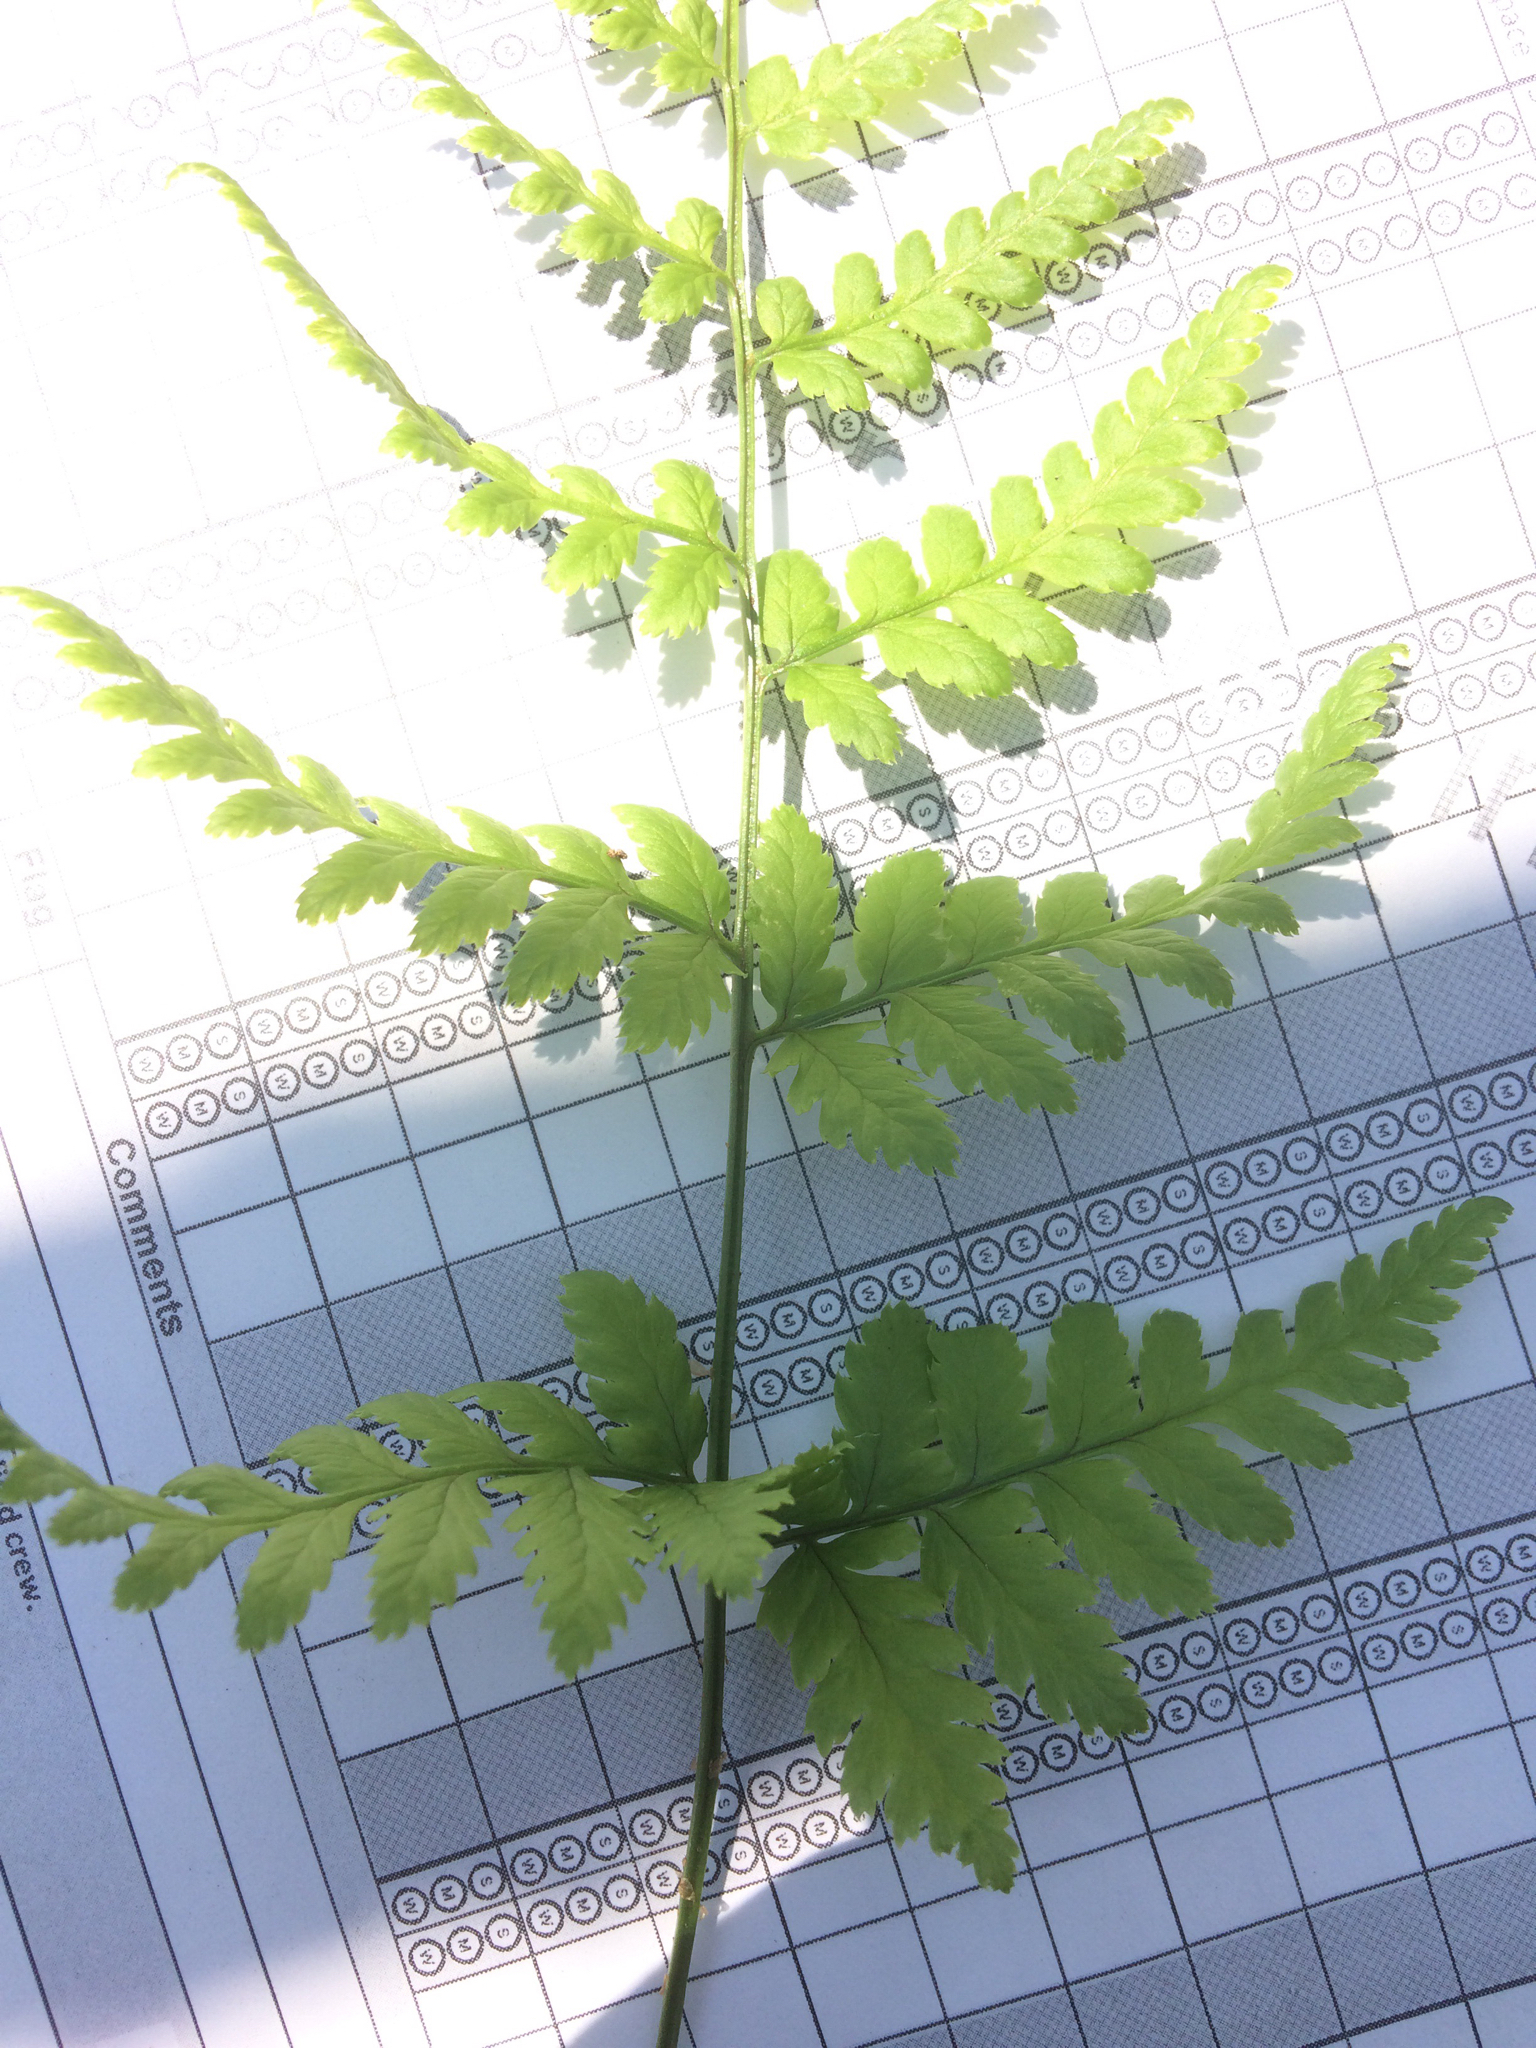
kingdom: Plantae
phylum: Tracheophyta
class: Polypodiopsida
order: Polypodiales
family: Dryopteridaceae
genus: Dryopteris
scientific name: Dryopteris carthusiana
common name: Narrow buckler-fern
